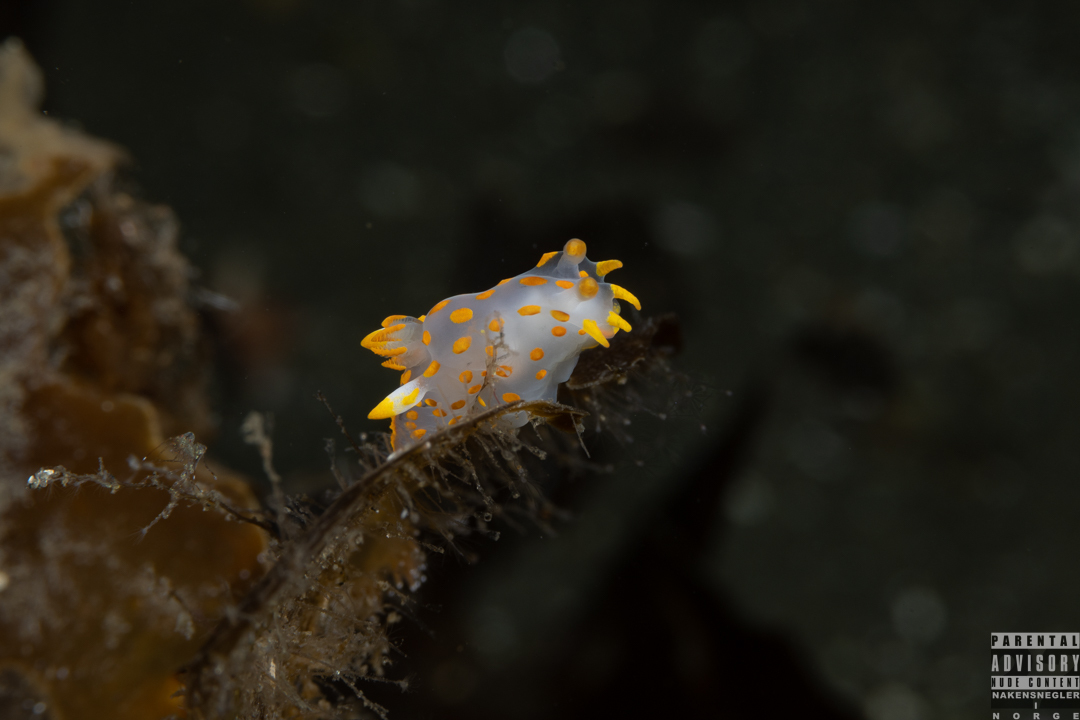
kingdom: Animalia
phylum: Mollusca
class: Gastropoda
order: Nudibranchia
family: Polyceridae
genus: Polycera
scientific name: Polycera quadrilineata
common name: Four-striped polycera
